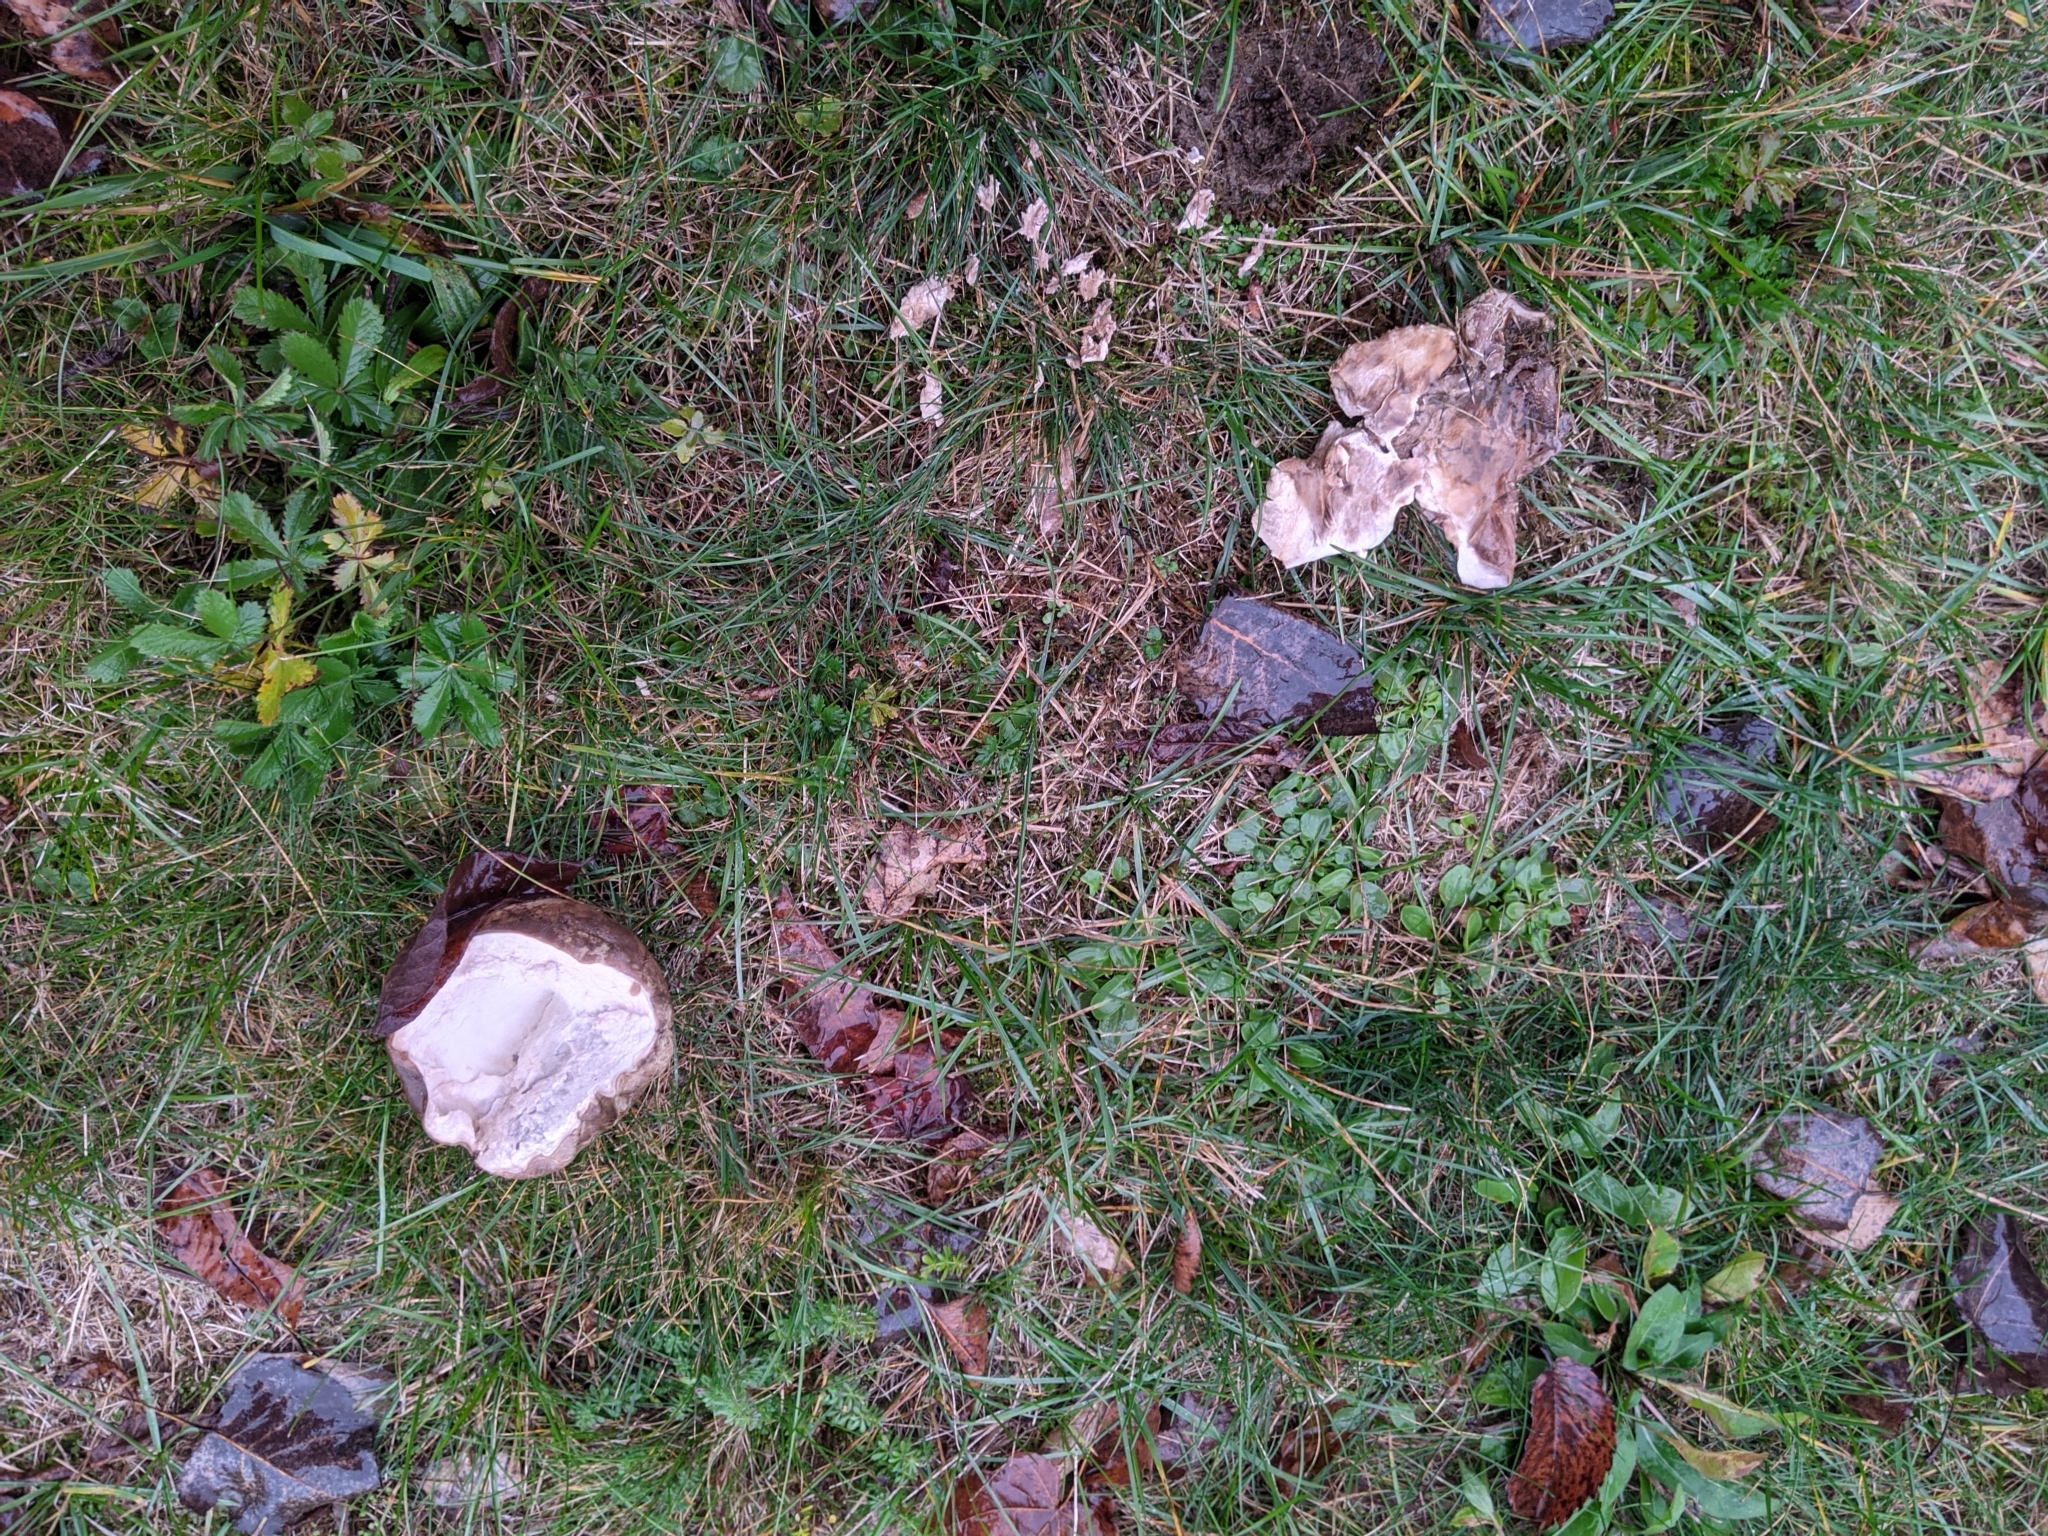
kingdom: Fungi
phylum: Basidiomycota
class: Agaricomycetes
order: Agaricales
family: Lycoperdaceae
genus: Calvatia
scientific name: Calvatia cyathiformis
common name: Purple-spored puffball
